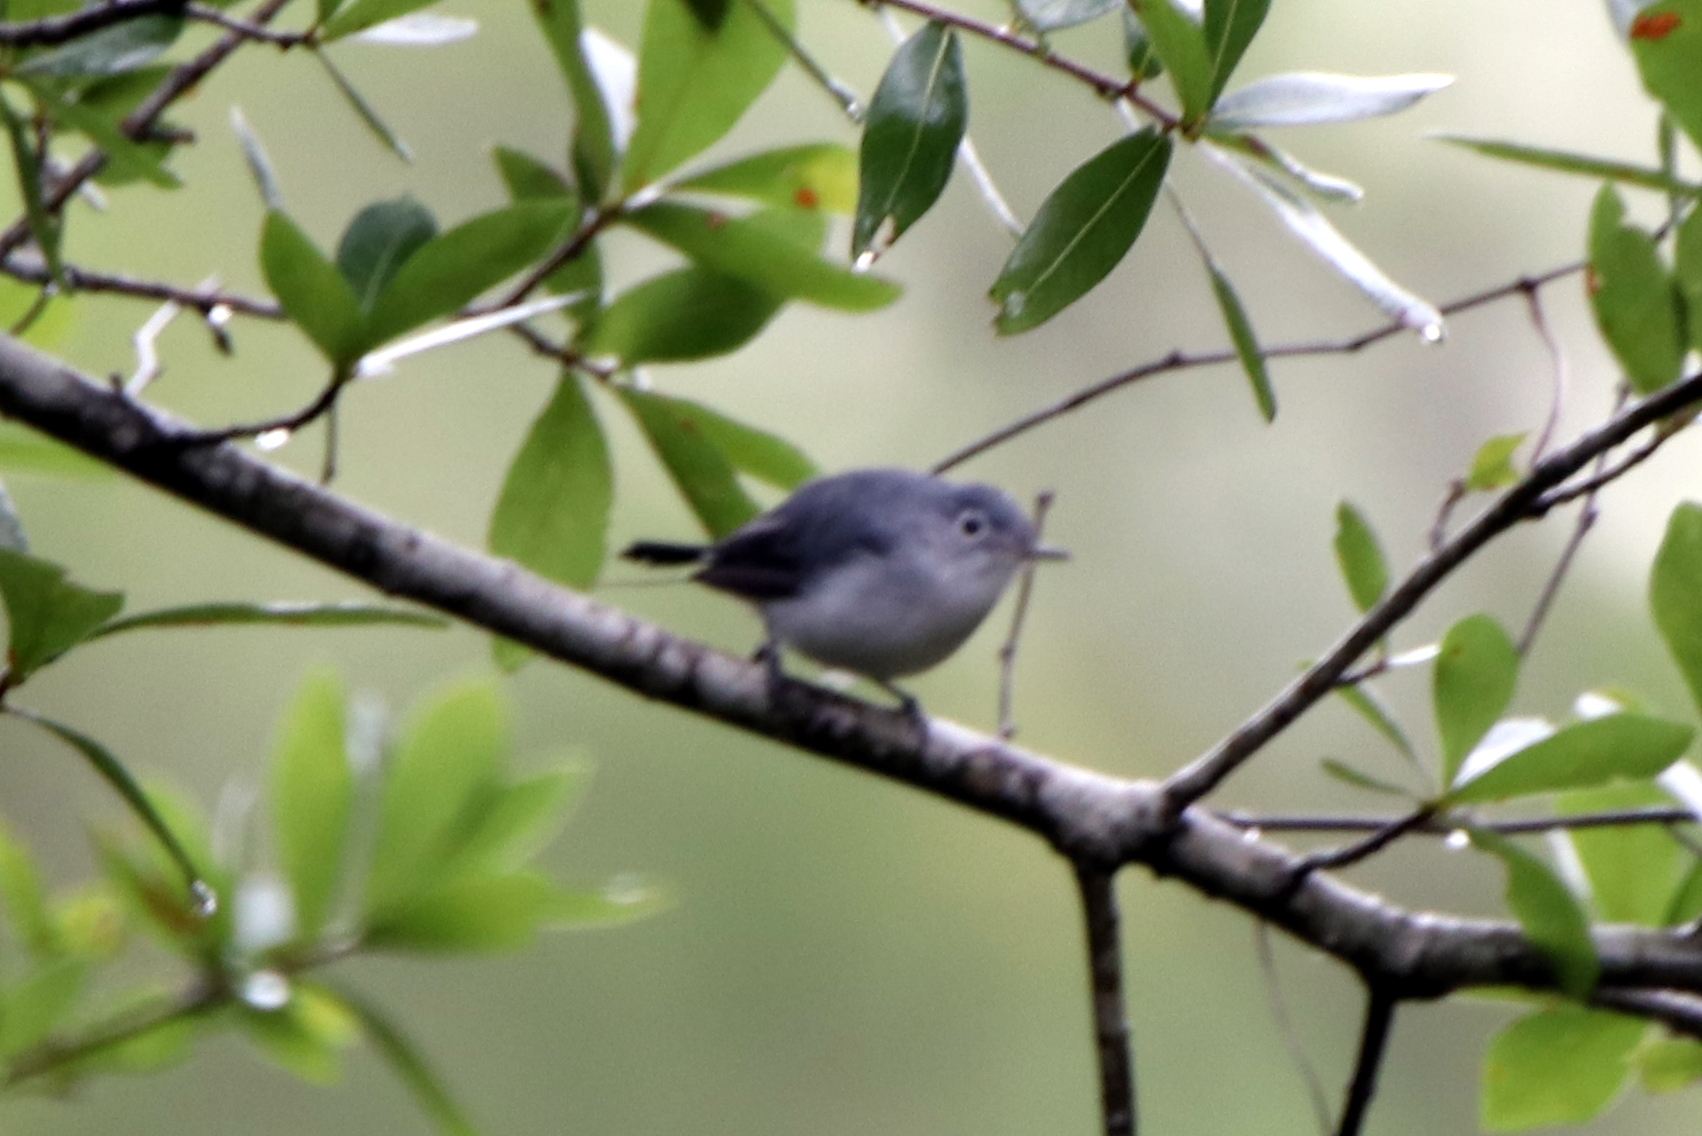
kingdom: Animalia
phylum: Chordata
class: Aves
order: Passeriformes
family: Polioptilidae
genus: Polioptila
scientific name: Polioptila caerulea
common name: Blue-gray gnatcatcher
